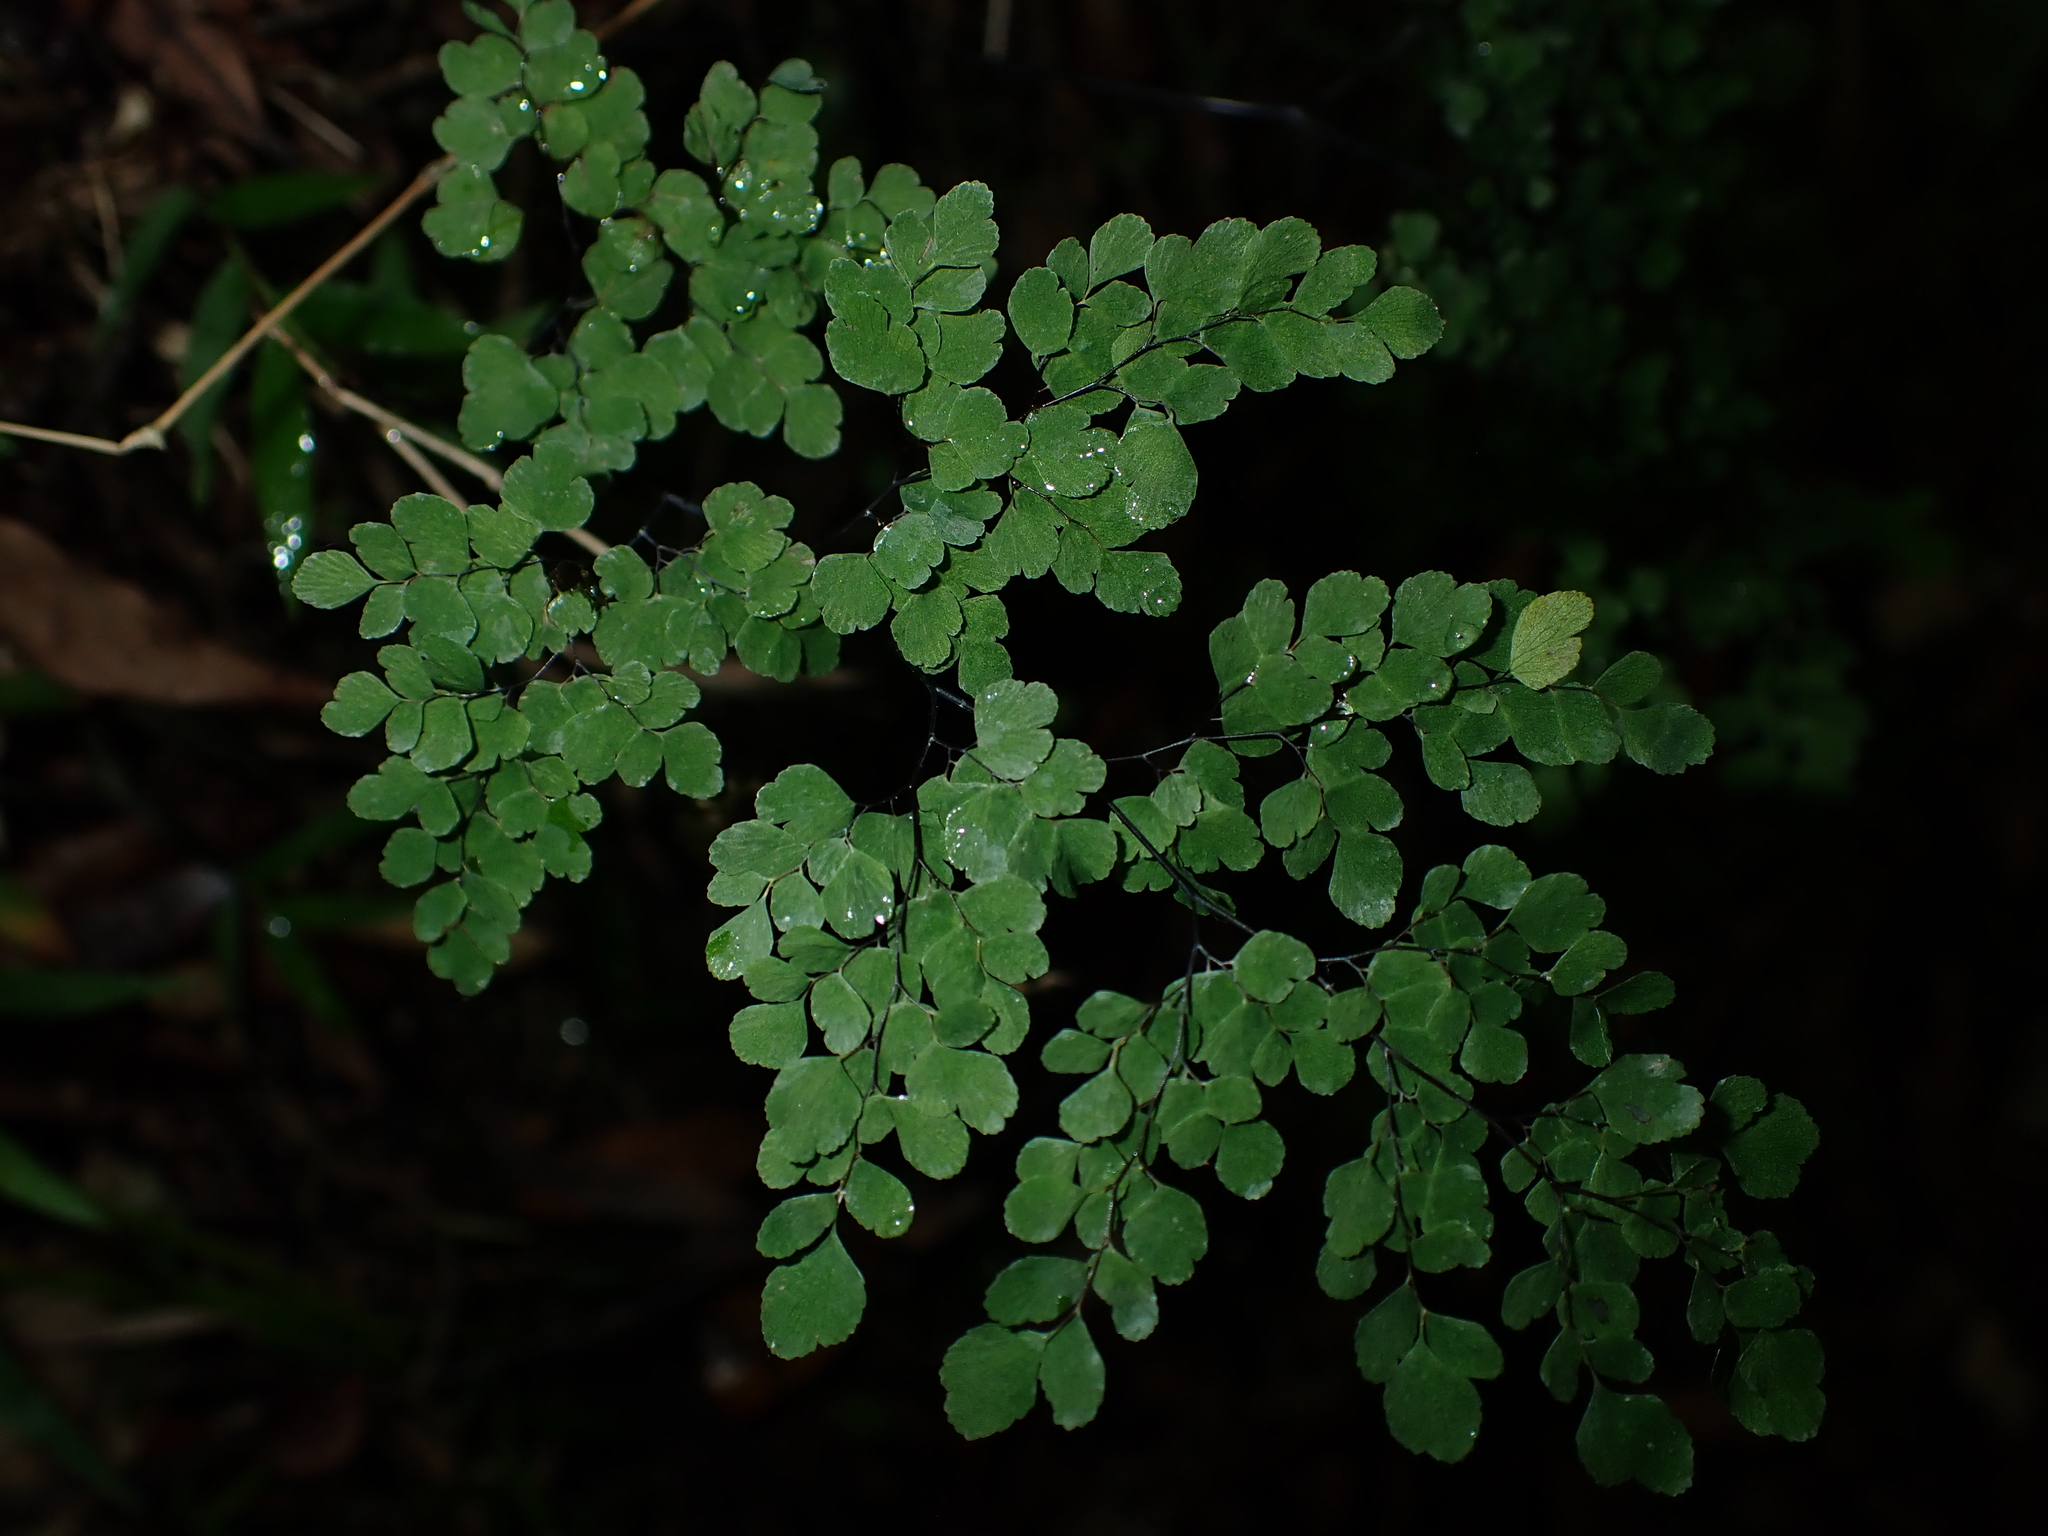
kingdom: Plantae
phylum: Tracheophyta
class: Polypodiopsida
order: Polypodiales
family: Pteridaceae
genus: Adiantum
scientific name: Adiantum raddianum
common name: Delta maidenhair fern
